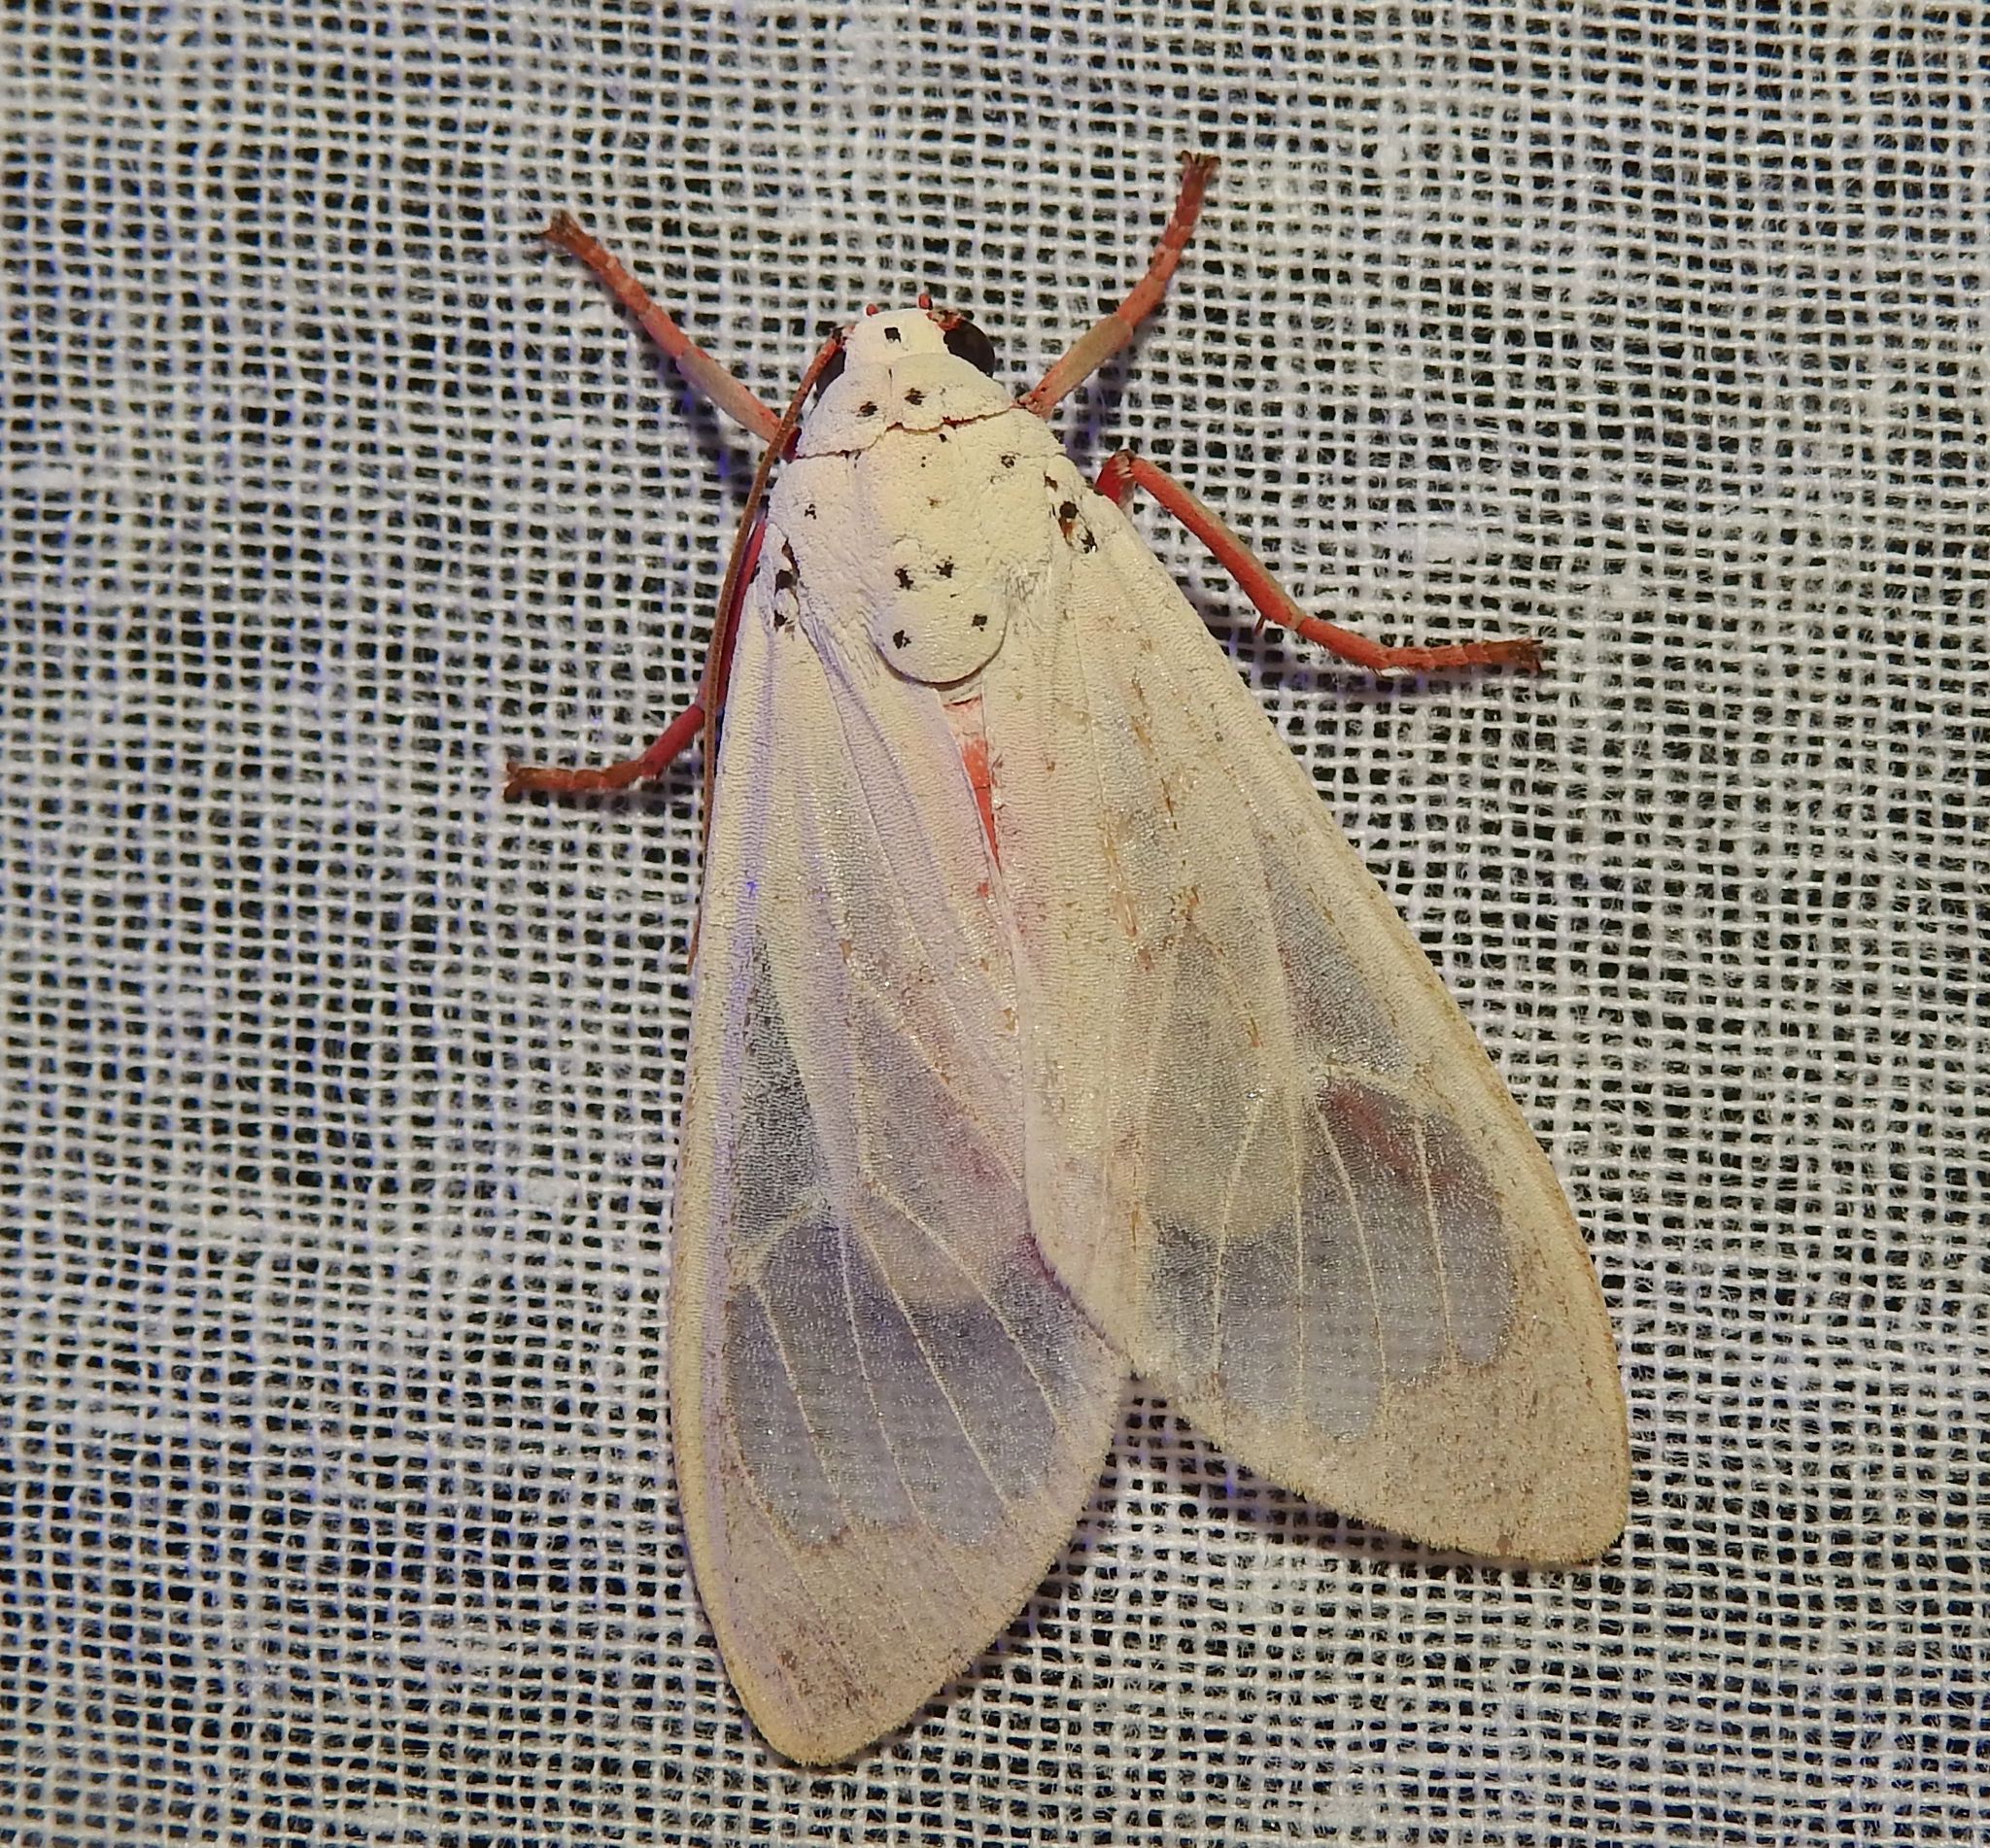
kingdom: Animalia
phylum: Arthropoda
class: Insecta
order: Lepidoptera
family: Erebidae
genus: Amerila
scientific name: Amerila eugenia
